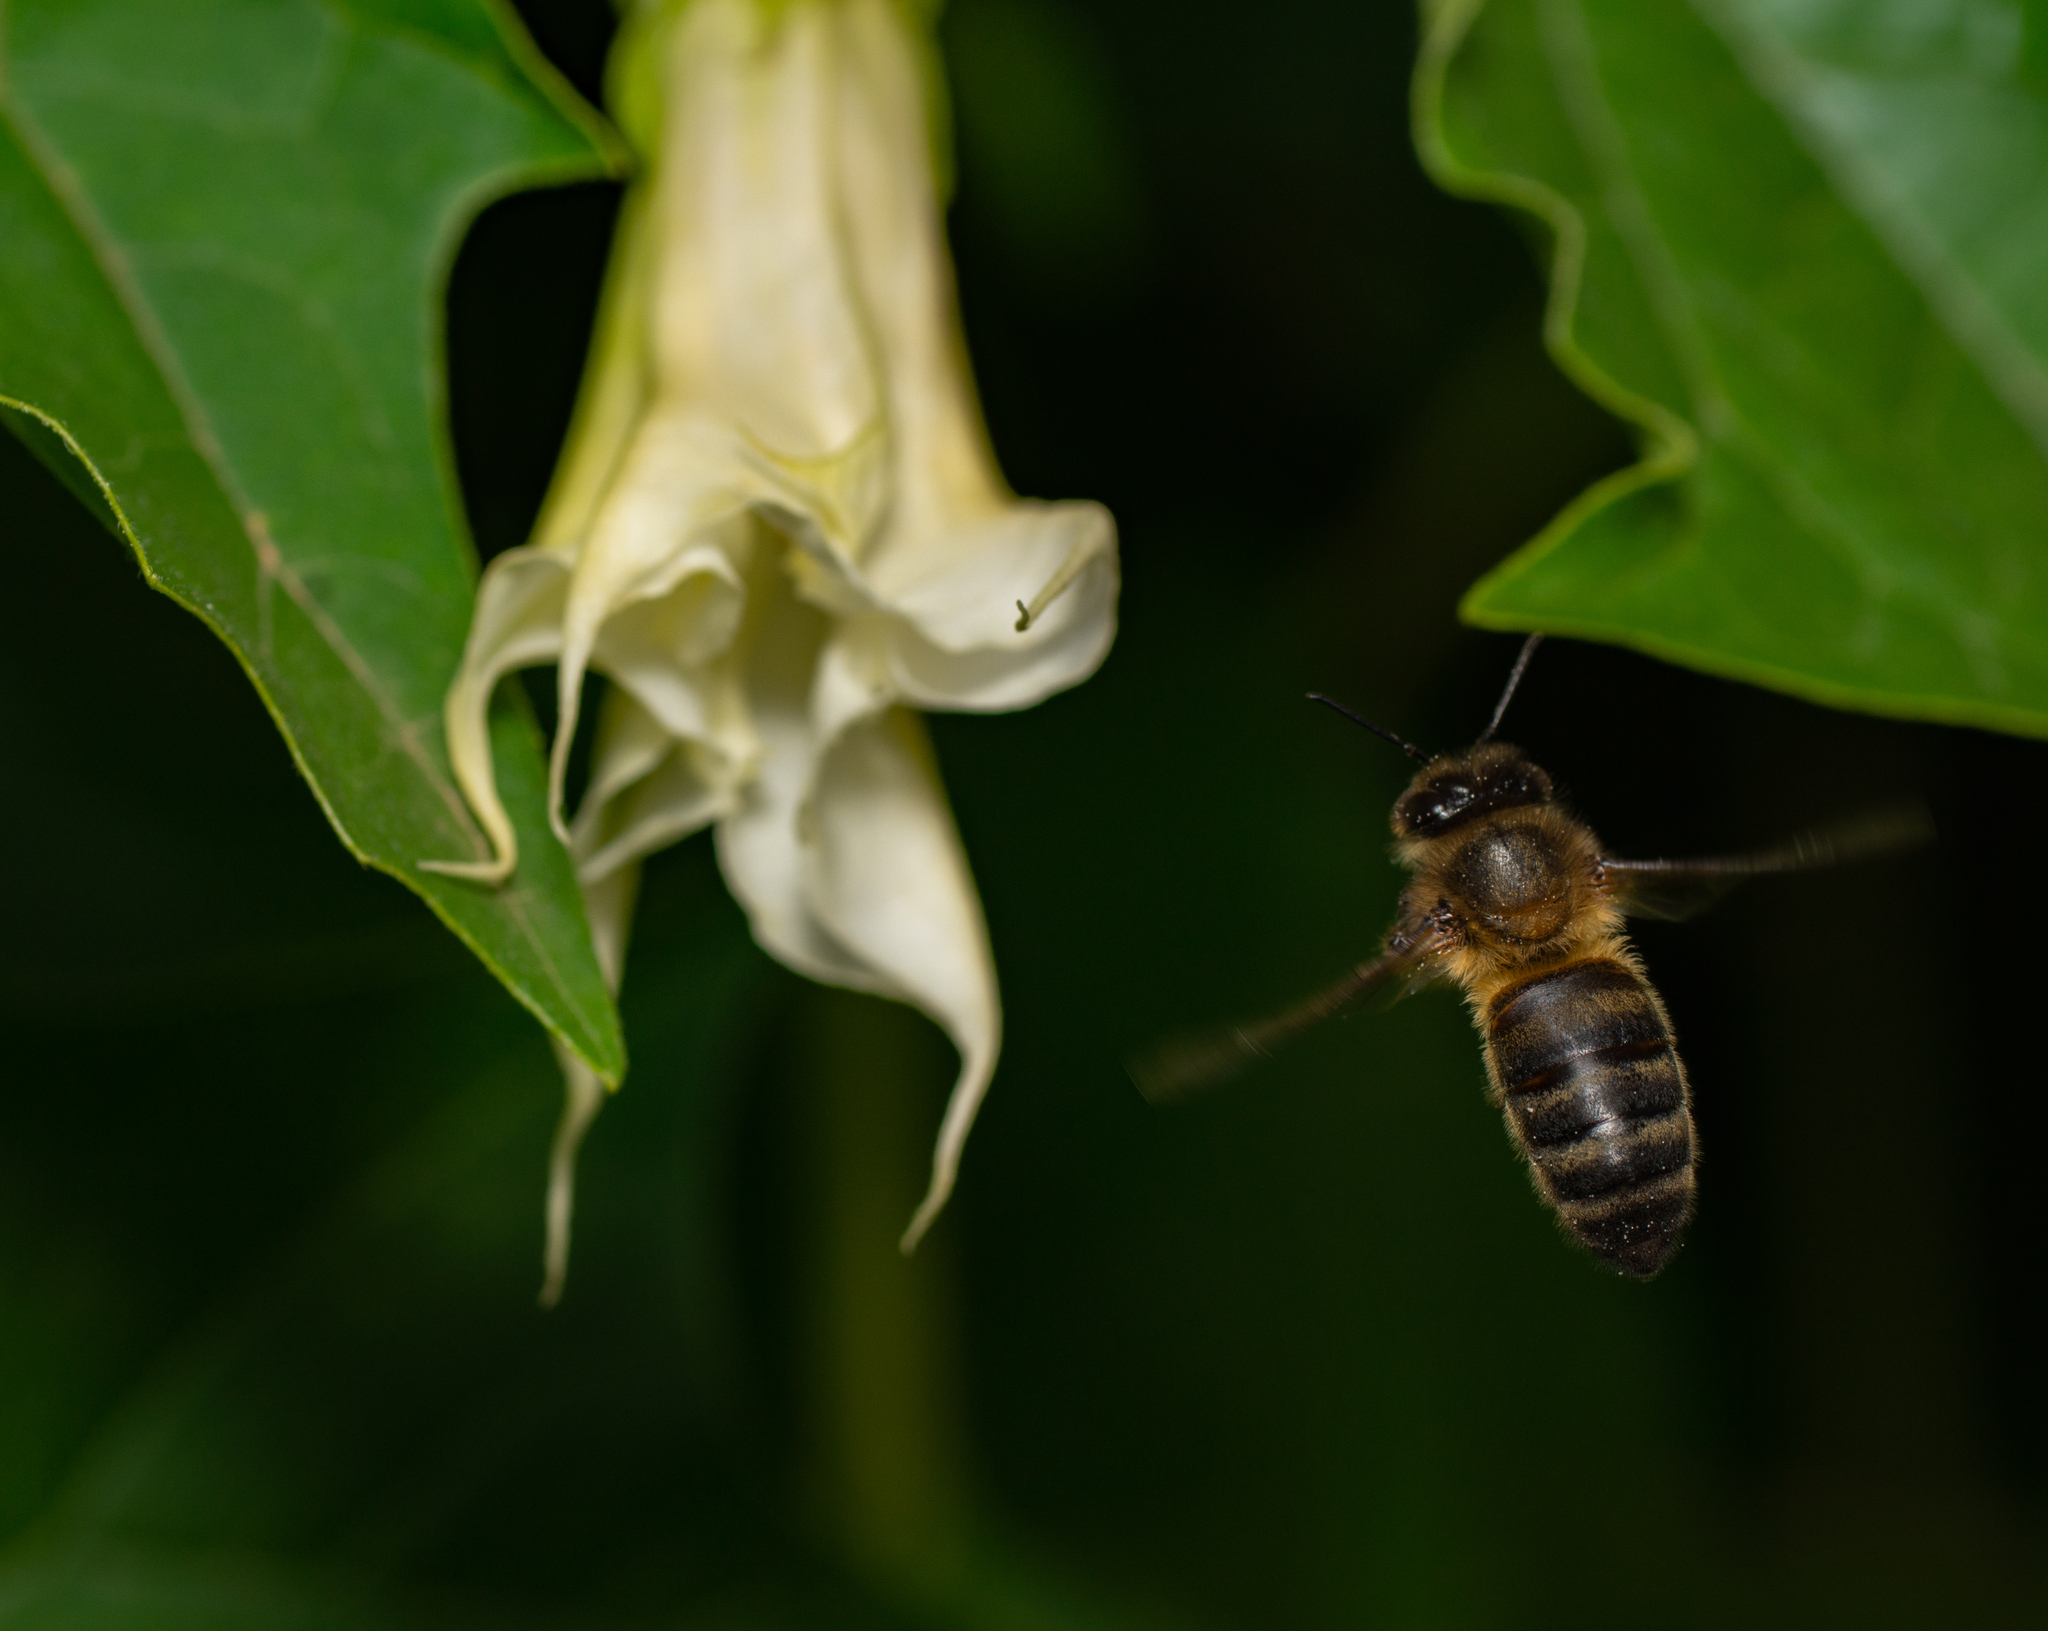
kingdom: Animalia
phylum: Arthropoda
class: Insecta
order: Hymenoptera
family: Apidae
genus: Apis
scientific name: Apis mellifera
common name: Honey bee
